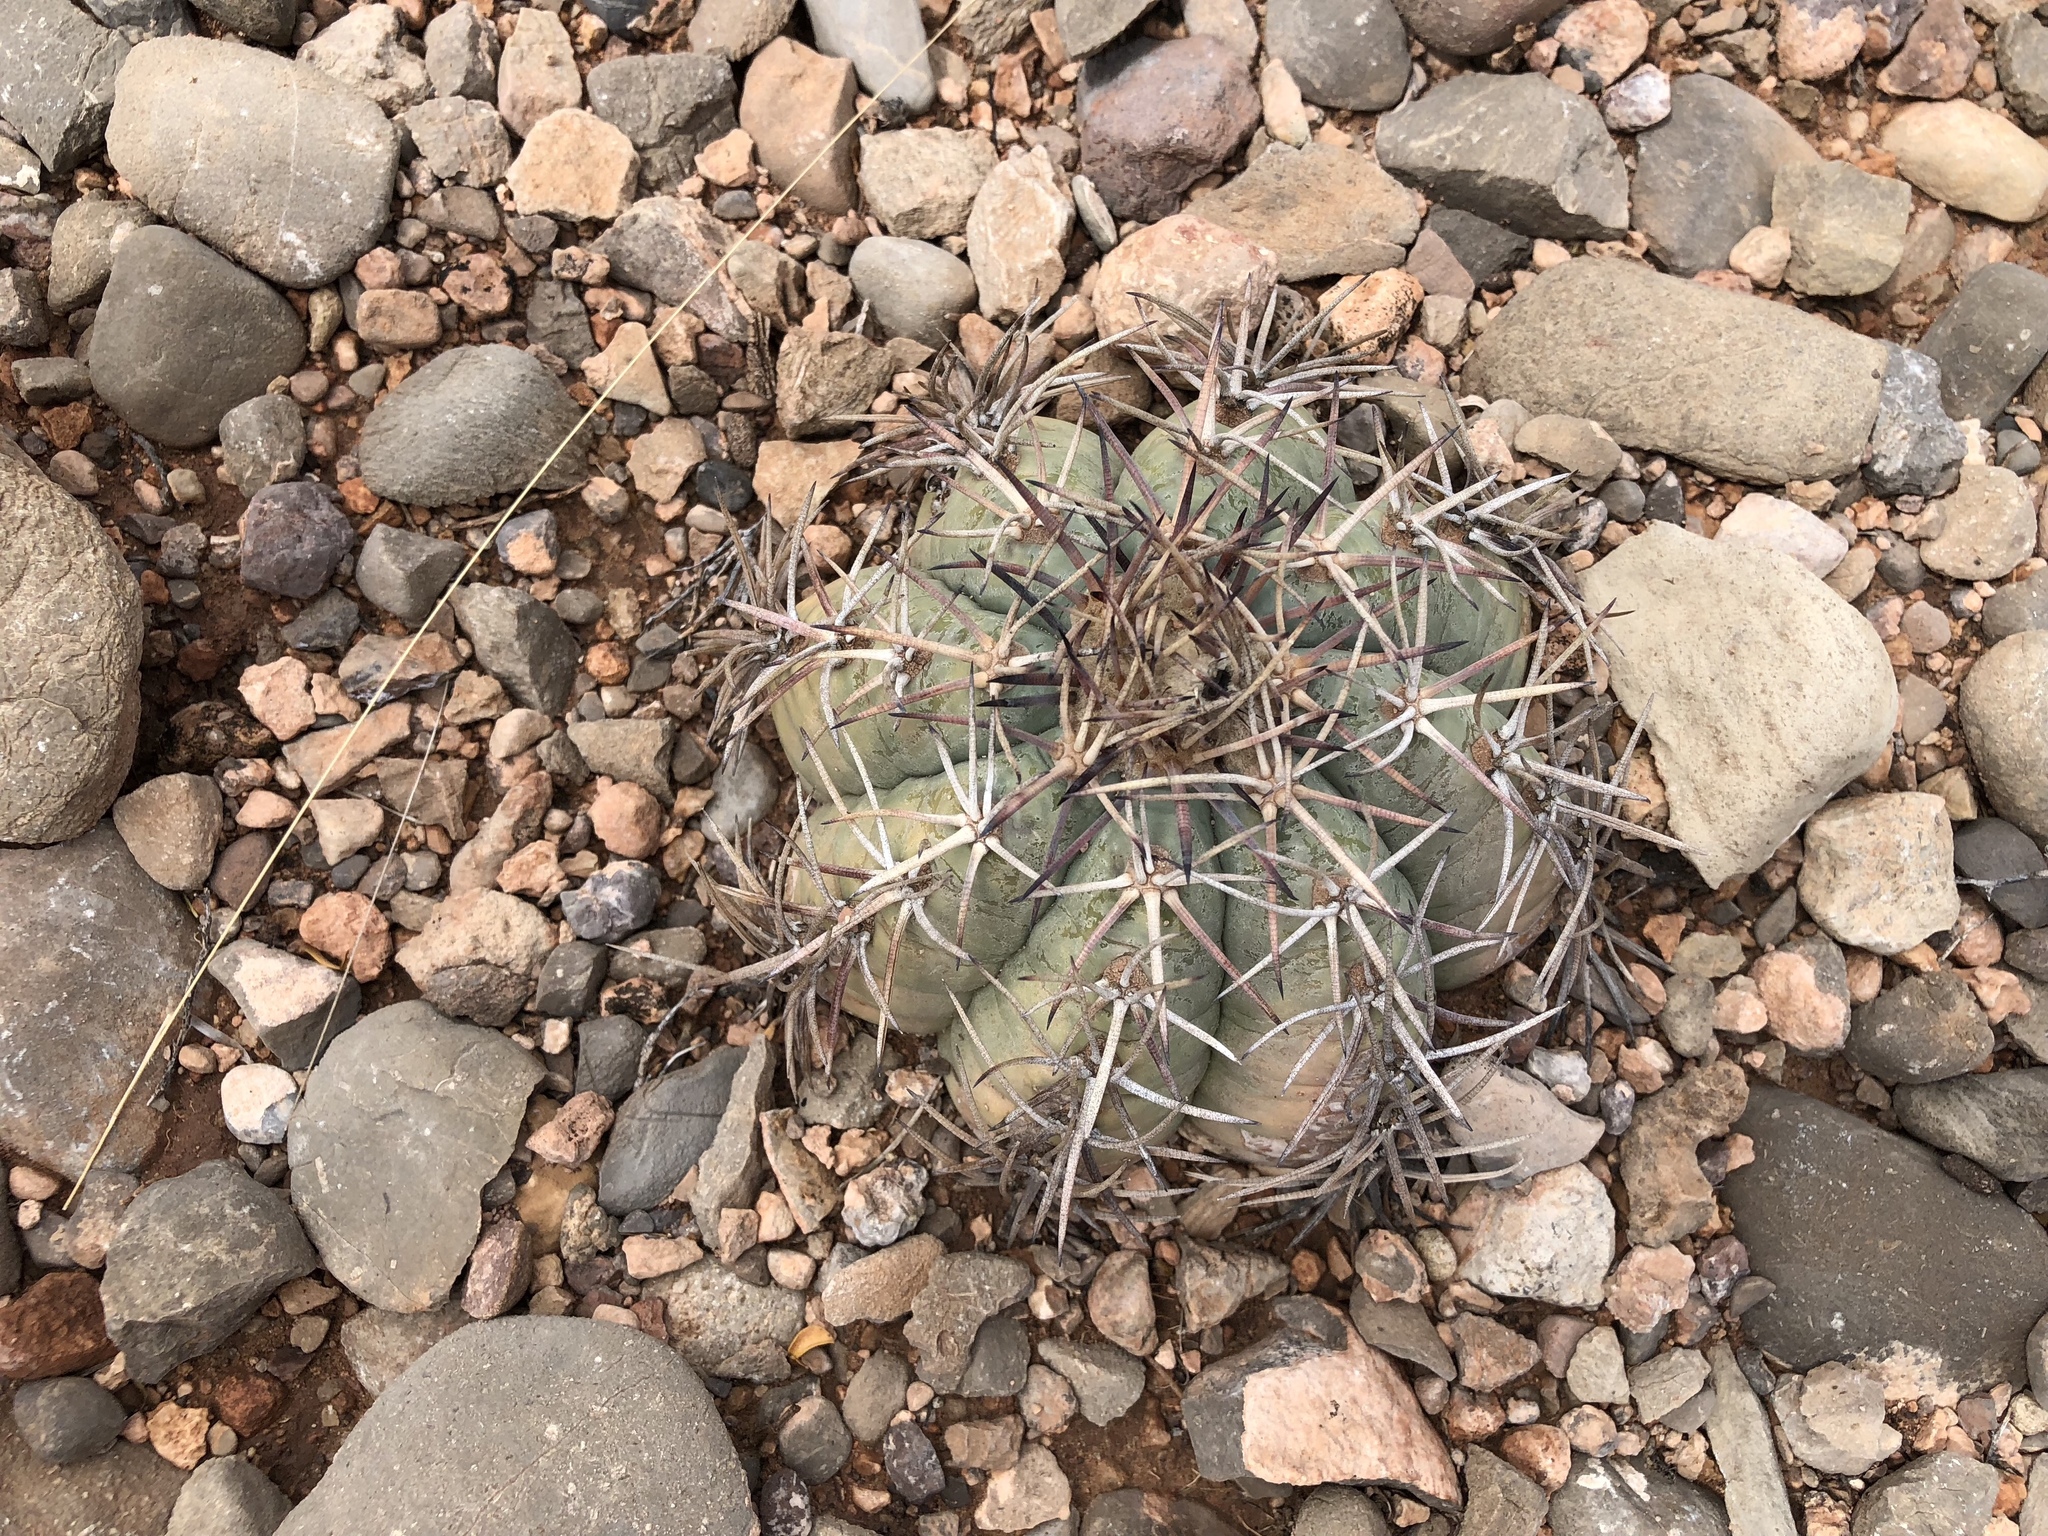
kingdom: Plantae
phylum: Tracheophyta
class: Magnoliopsida
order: Caryophyllales
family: Cactaceae
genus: Echinocactus
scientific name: Echinocactus horizonthalonius
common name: Devilshead
